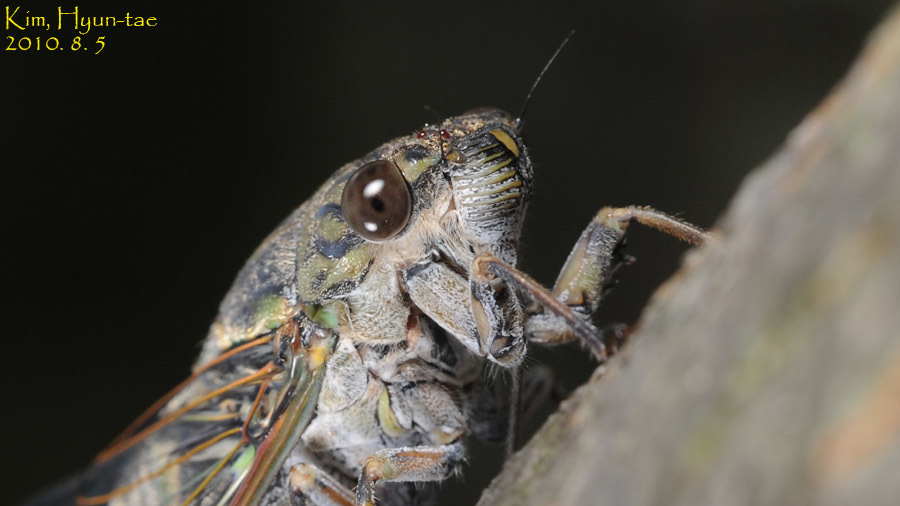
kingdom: Animalia
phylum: Arthropoda
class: Insecta
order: Hemiptera
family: Cicadidae
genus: Meimuna
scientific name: Meimuna opalifera
